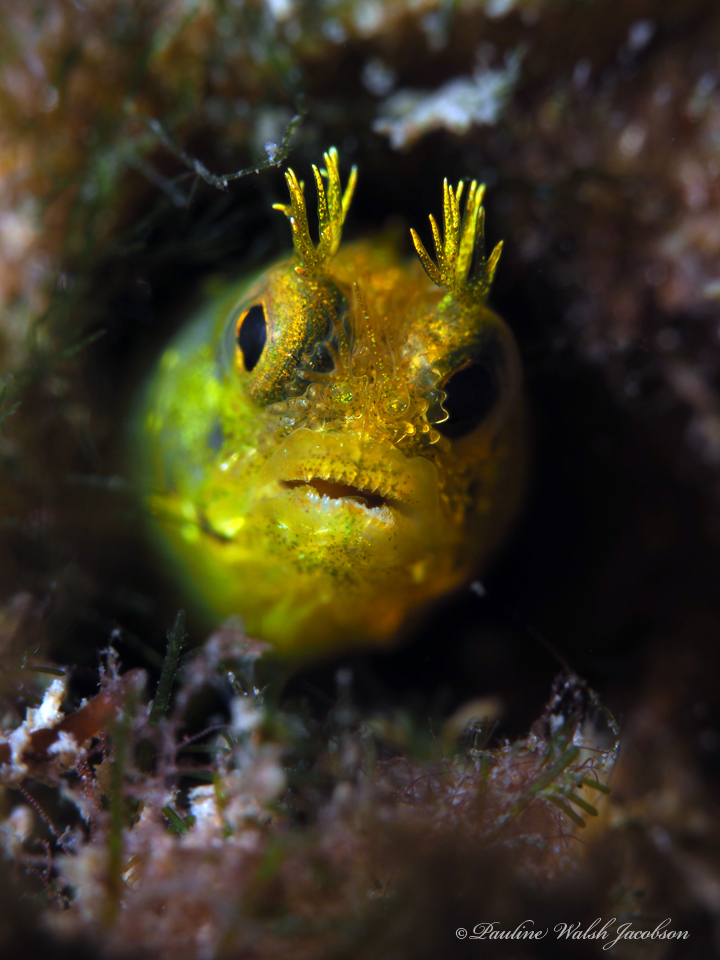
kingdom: Animalia
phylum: Chordata
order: Perciformes
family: Chaenopsidae
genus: Acanthemblemaria
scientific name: Acanthemblemaria aspera
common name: Roughhead blenny
